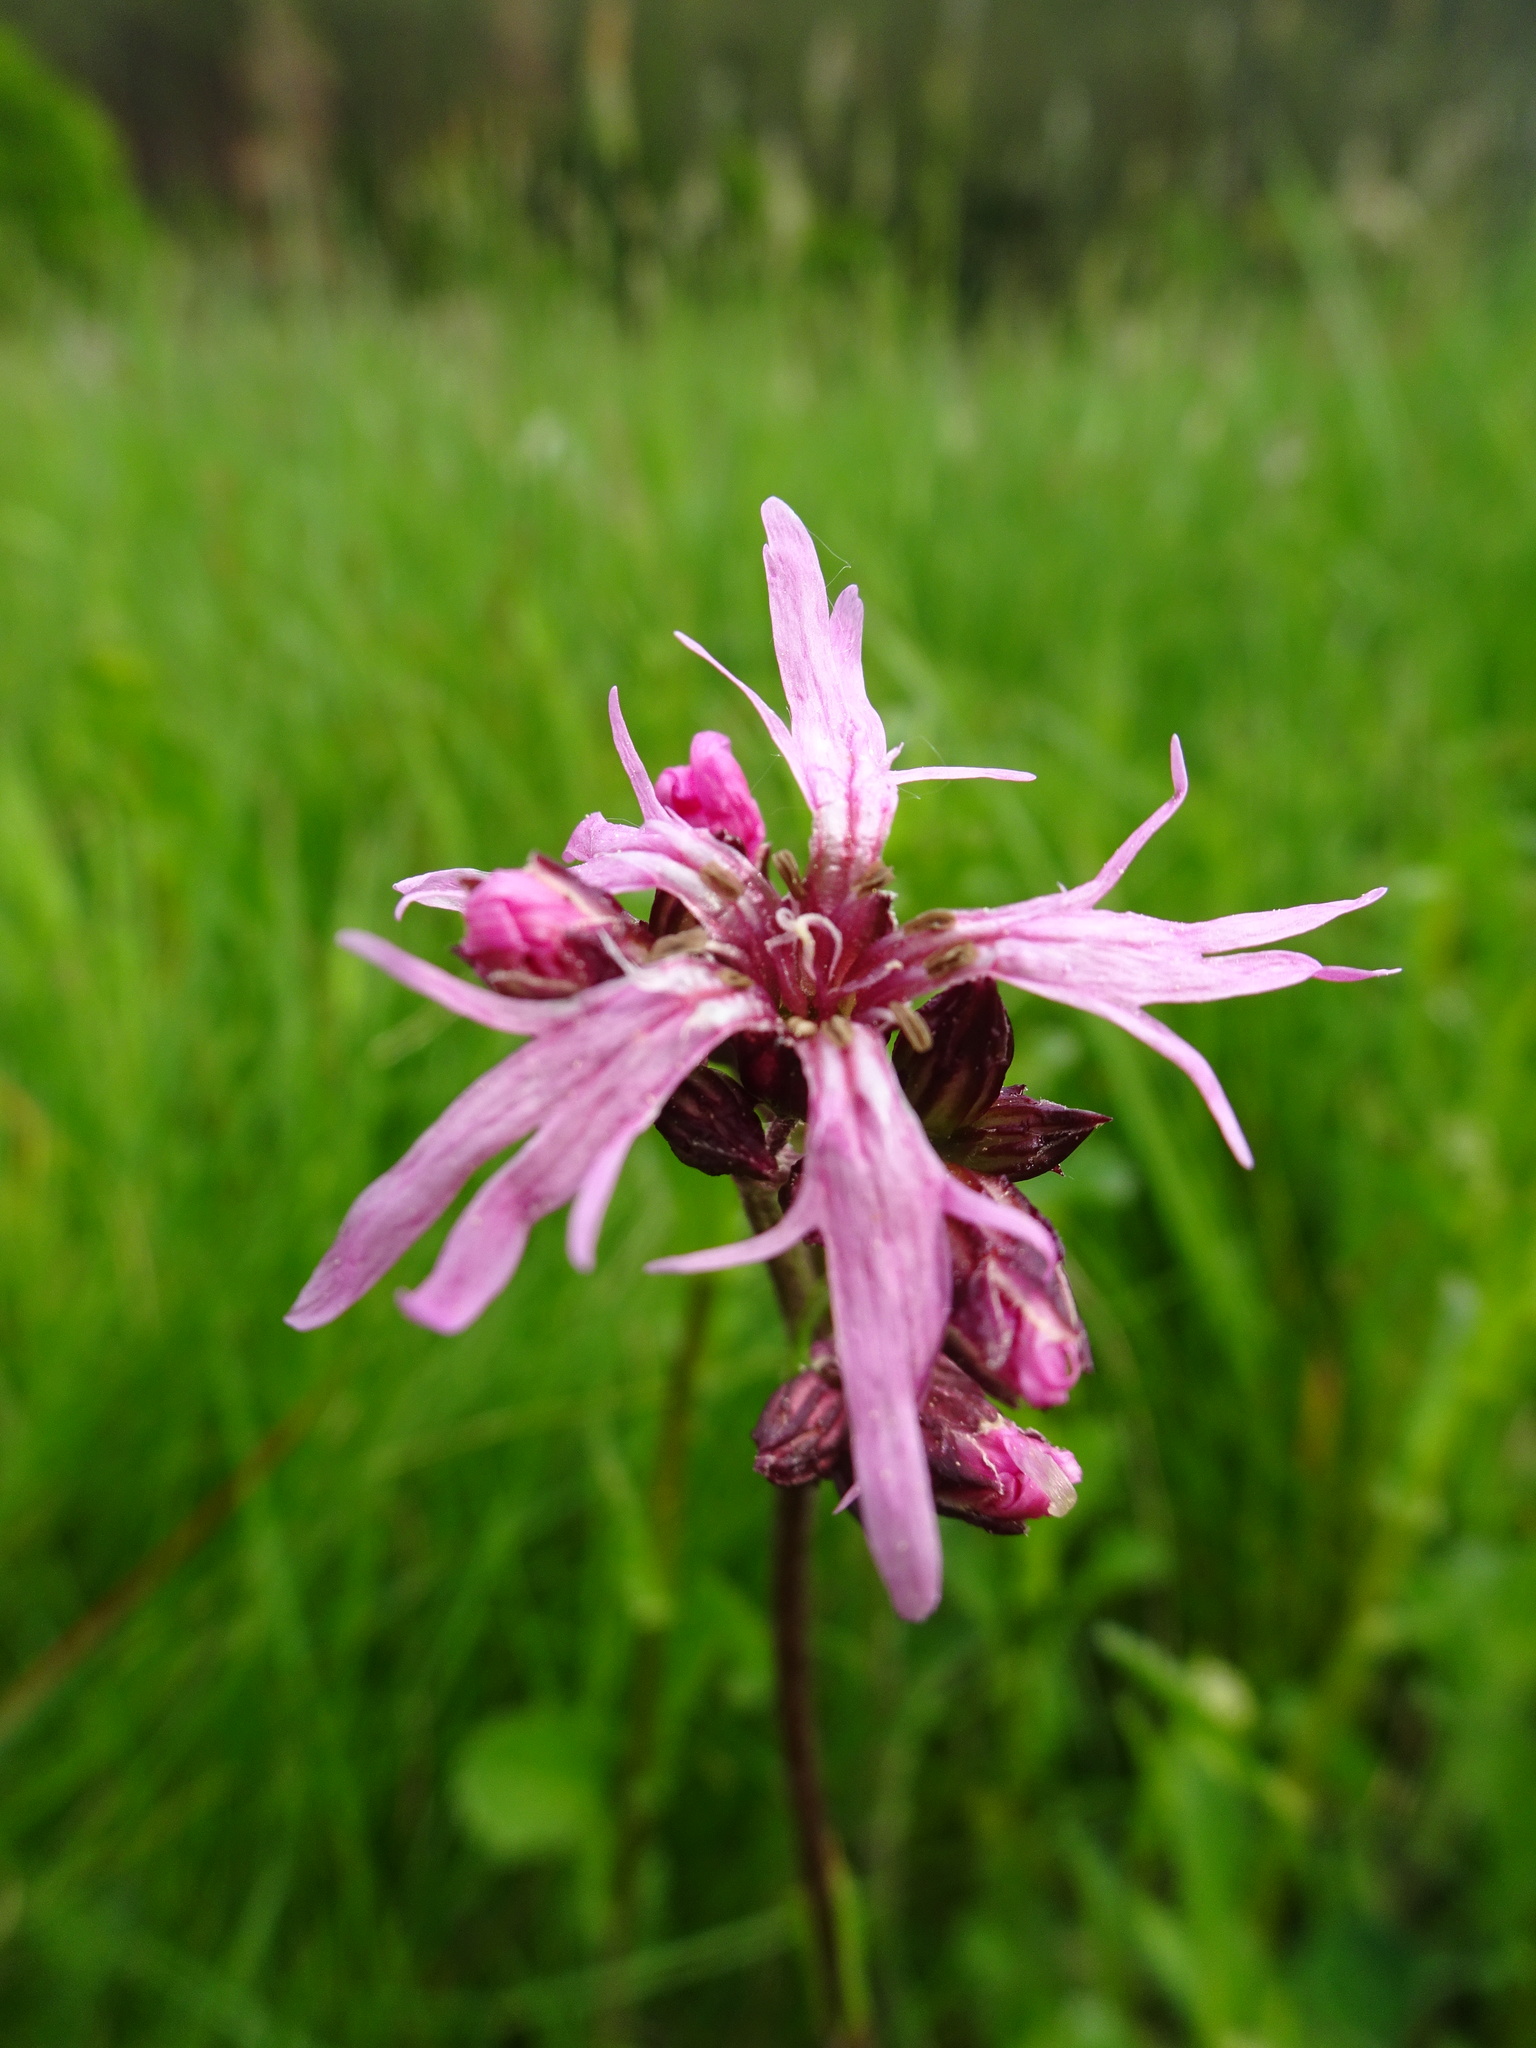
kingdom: Plantae
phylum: Tracheophyta
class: Magnoliopsida
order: Caryophyllales
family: Caryophyllaceae
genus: Silene
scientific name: Silene flos-cuculi
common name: Ragged-robin
